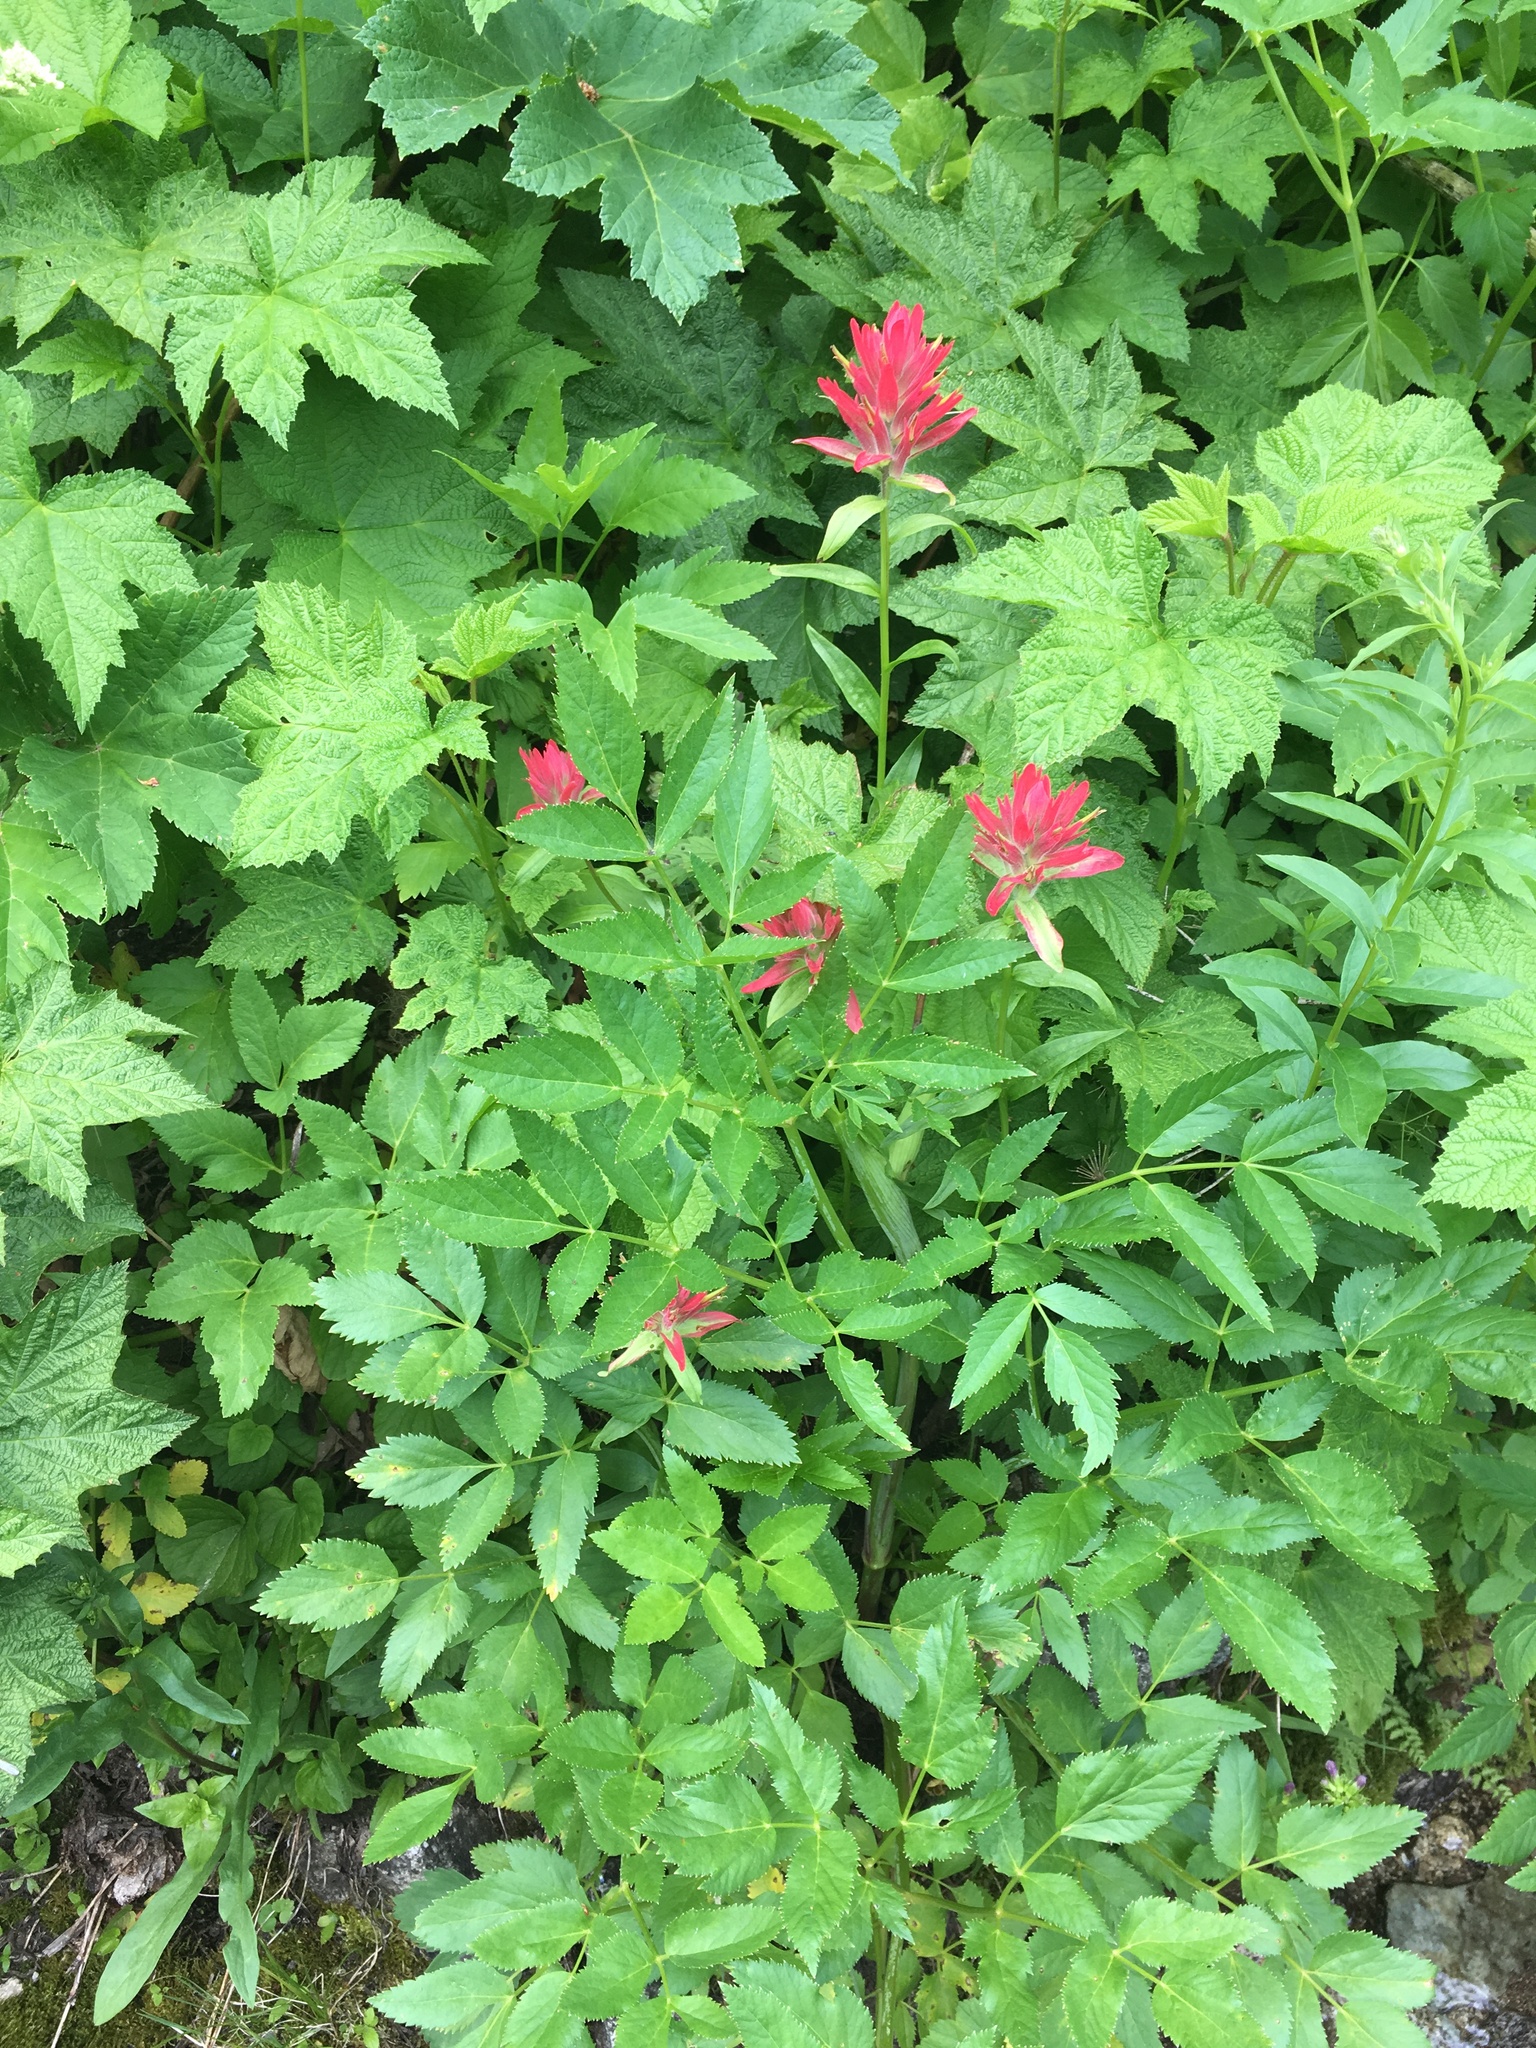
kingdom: Plantae
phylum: Tracheophyta
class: Magnoliopsida
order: Lamiales
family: Orobanchaceae
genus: Castilleja
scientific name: Castilleja miniata
